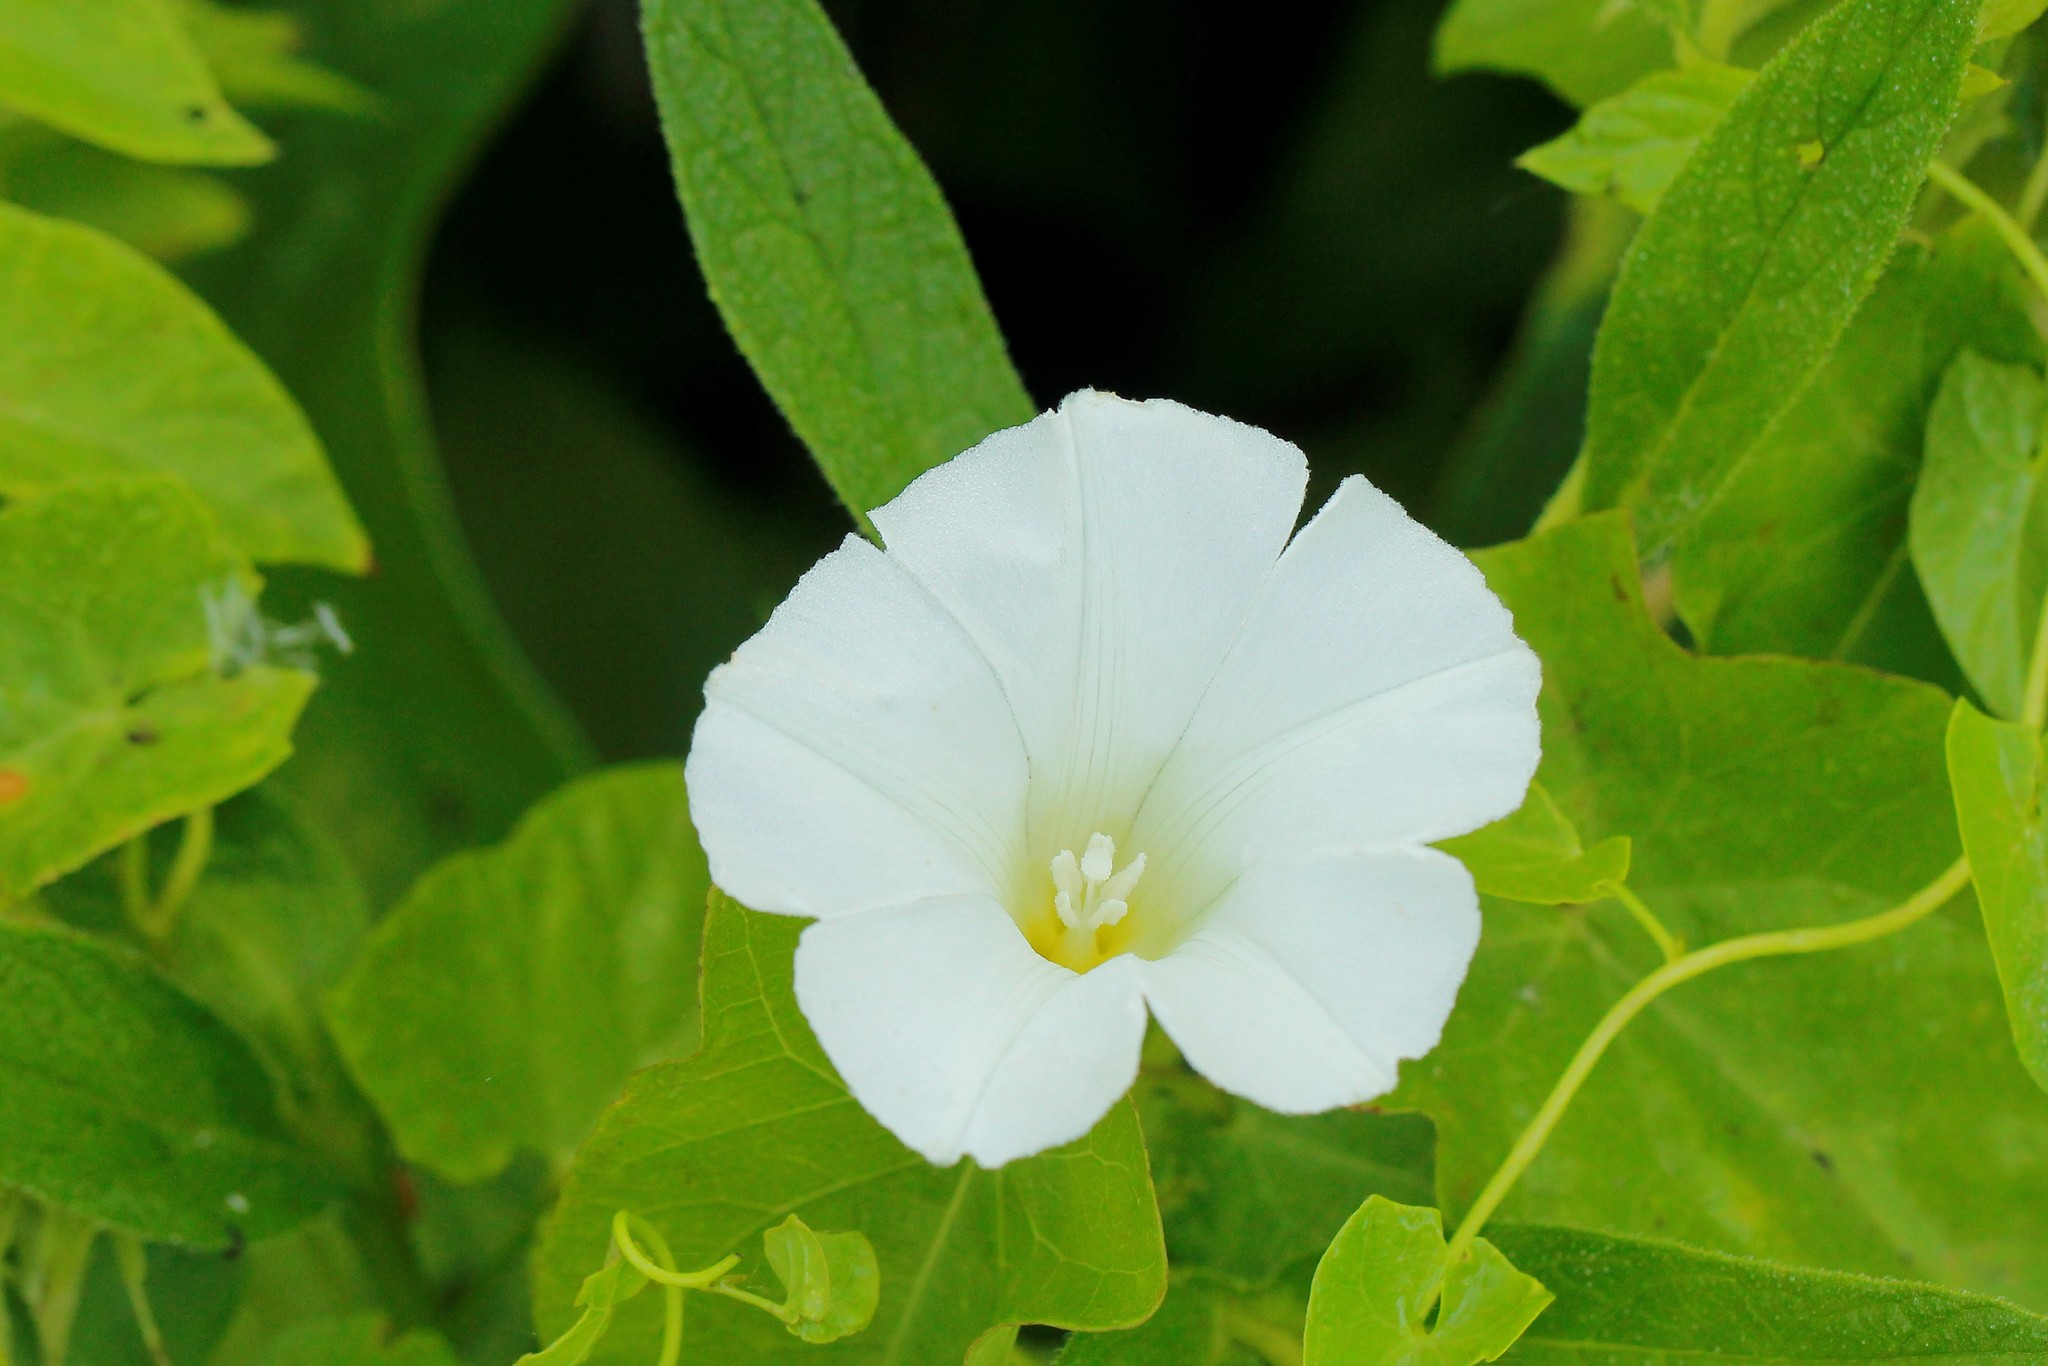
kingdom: Plantae
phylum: Tracheophyta
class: Magnoliopsida
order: Solanales
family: Convolvulaceae
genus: Calystegia
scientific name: Calystegia sepium
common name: Hedge bindweed
